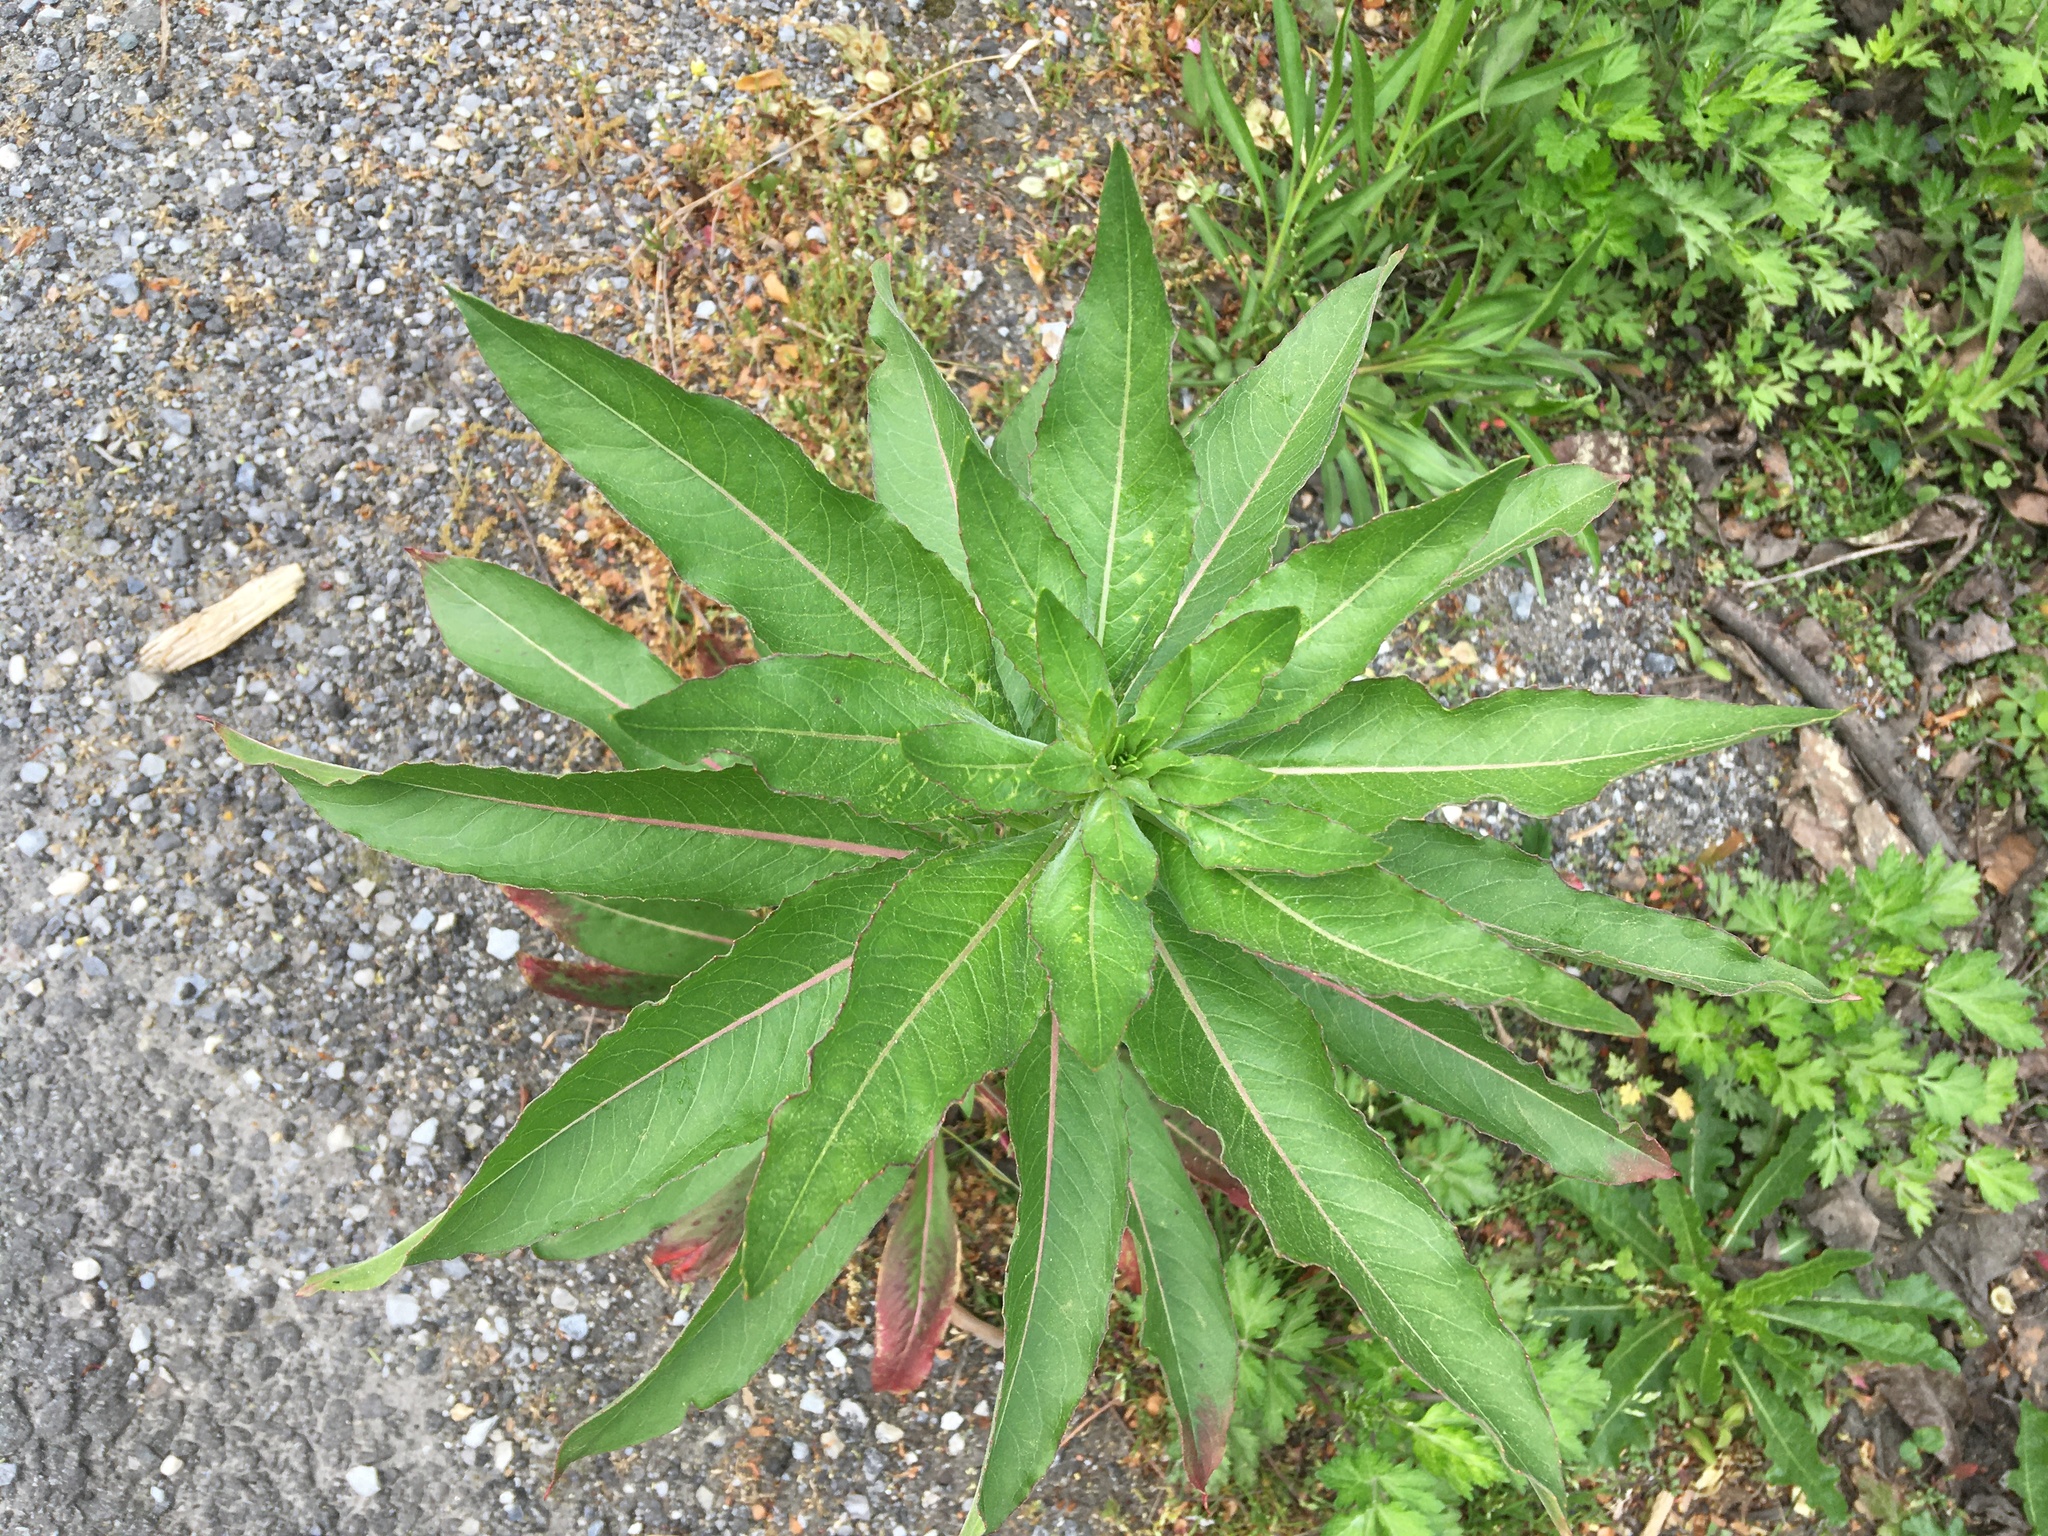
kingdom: Plantae
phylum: Tracheophyta
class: Magnoliopsida
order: Myrtales
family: Onagraceae
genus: Oenothera
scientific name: Oenothera biennis
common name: Common evening-primrose
